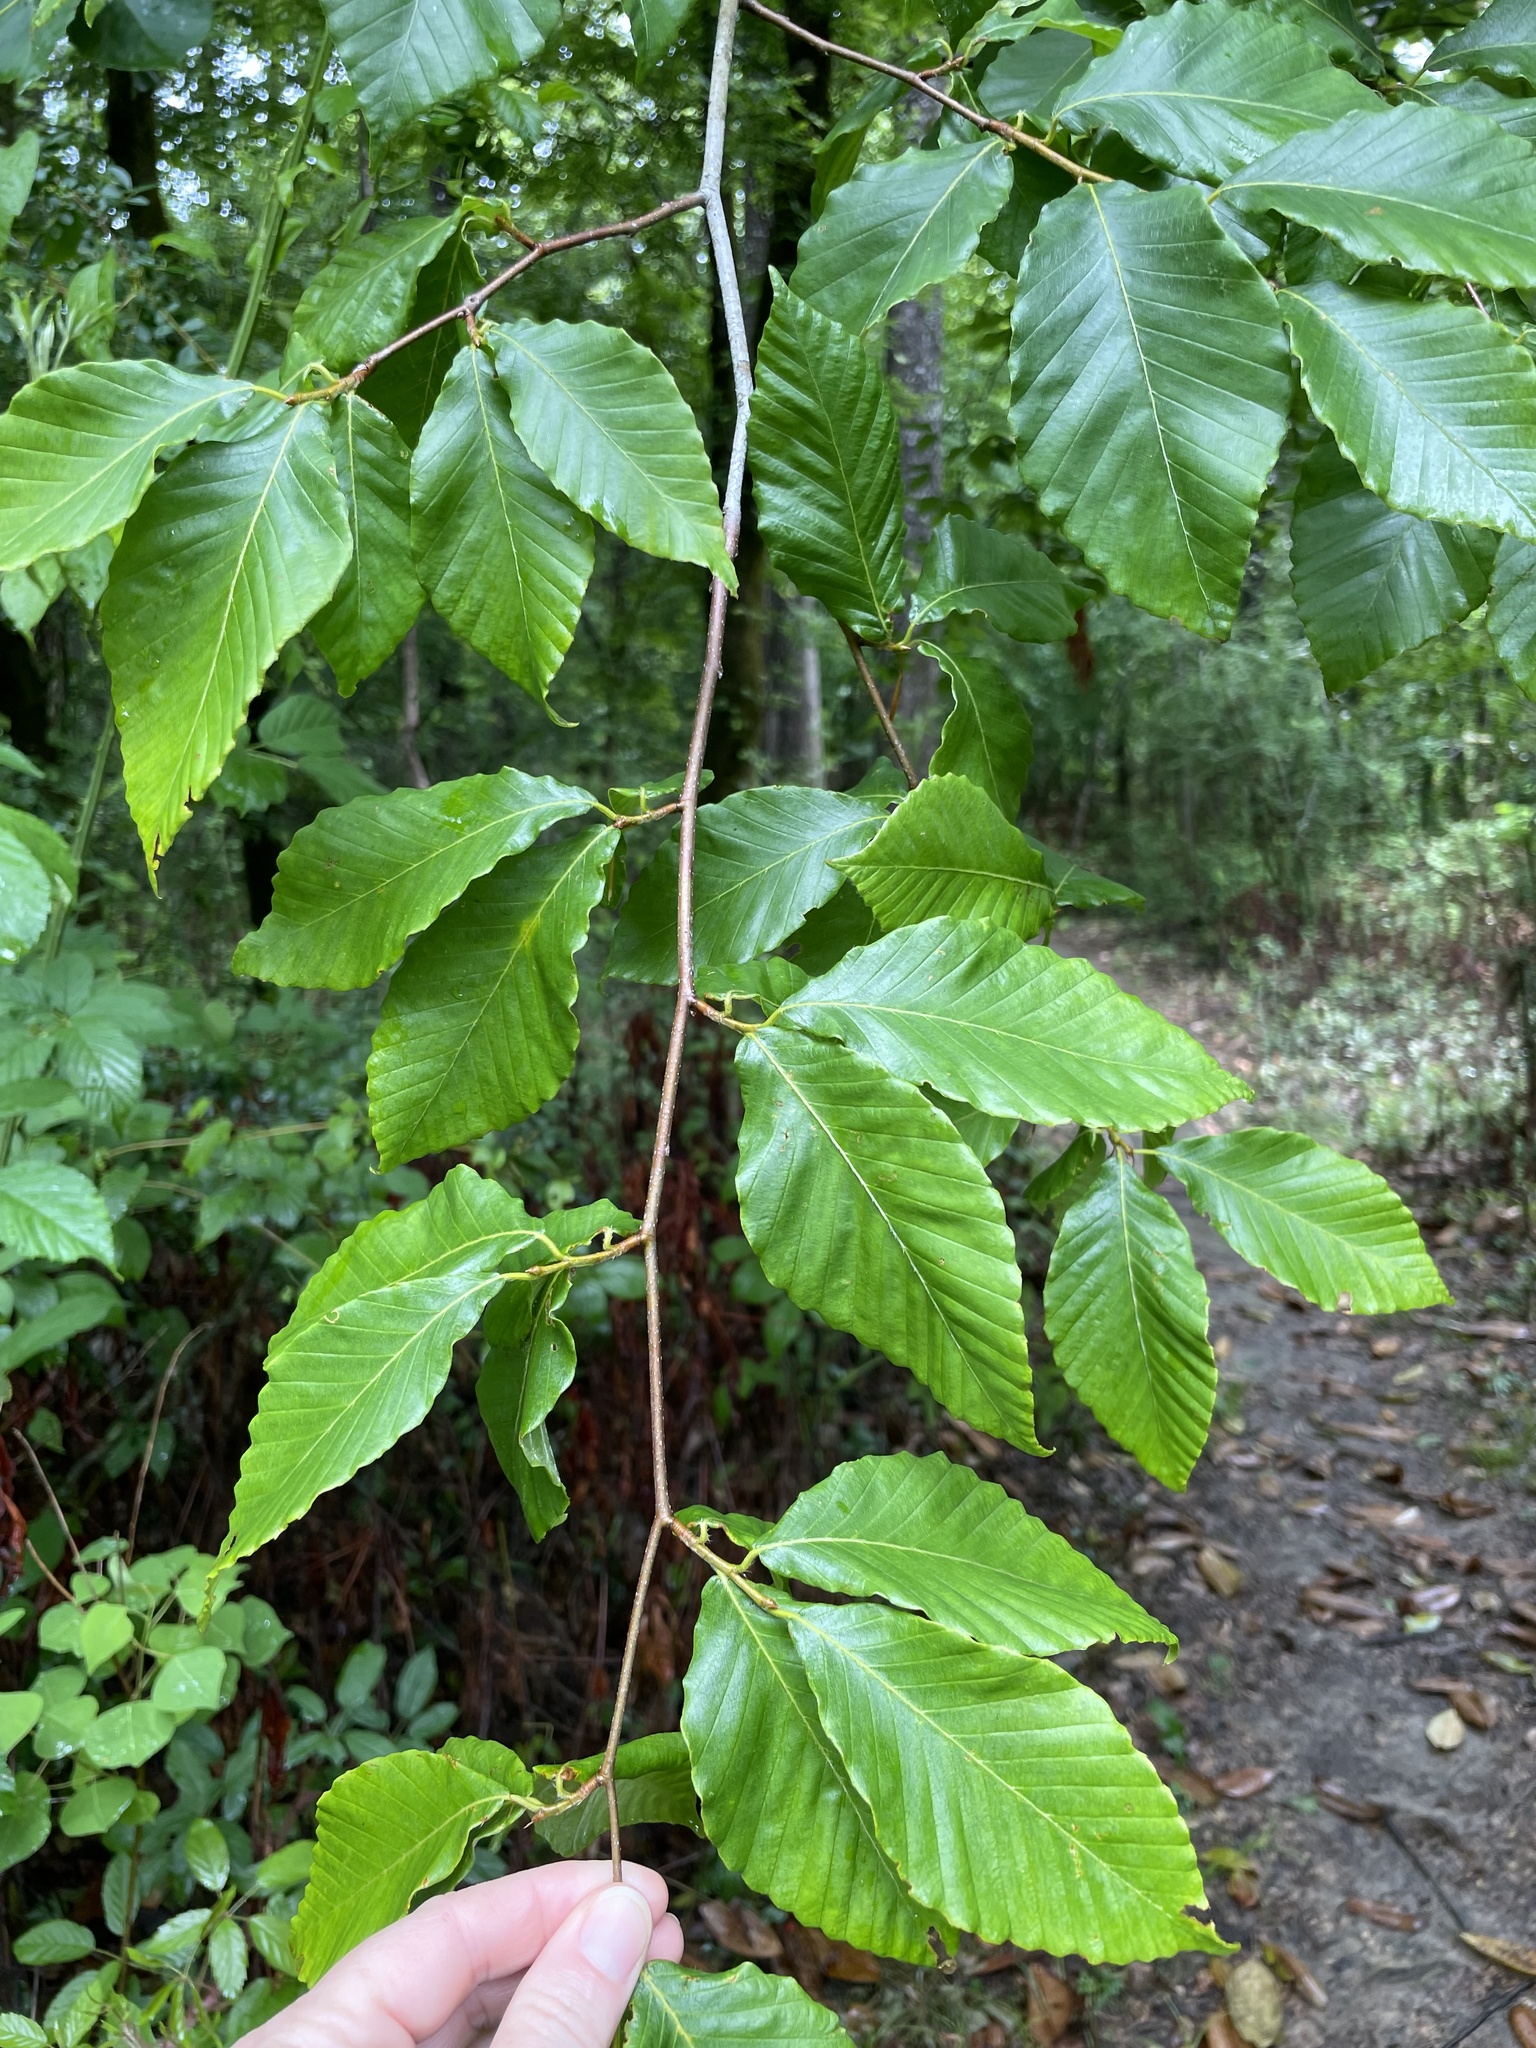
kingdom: Plantae
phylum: Tracheophyta
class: Magnoliopsida
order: Fagales
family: Fagaceae
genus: Fagus
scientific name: Fagus grandifolia
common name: American beech
